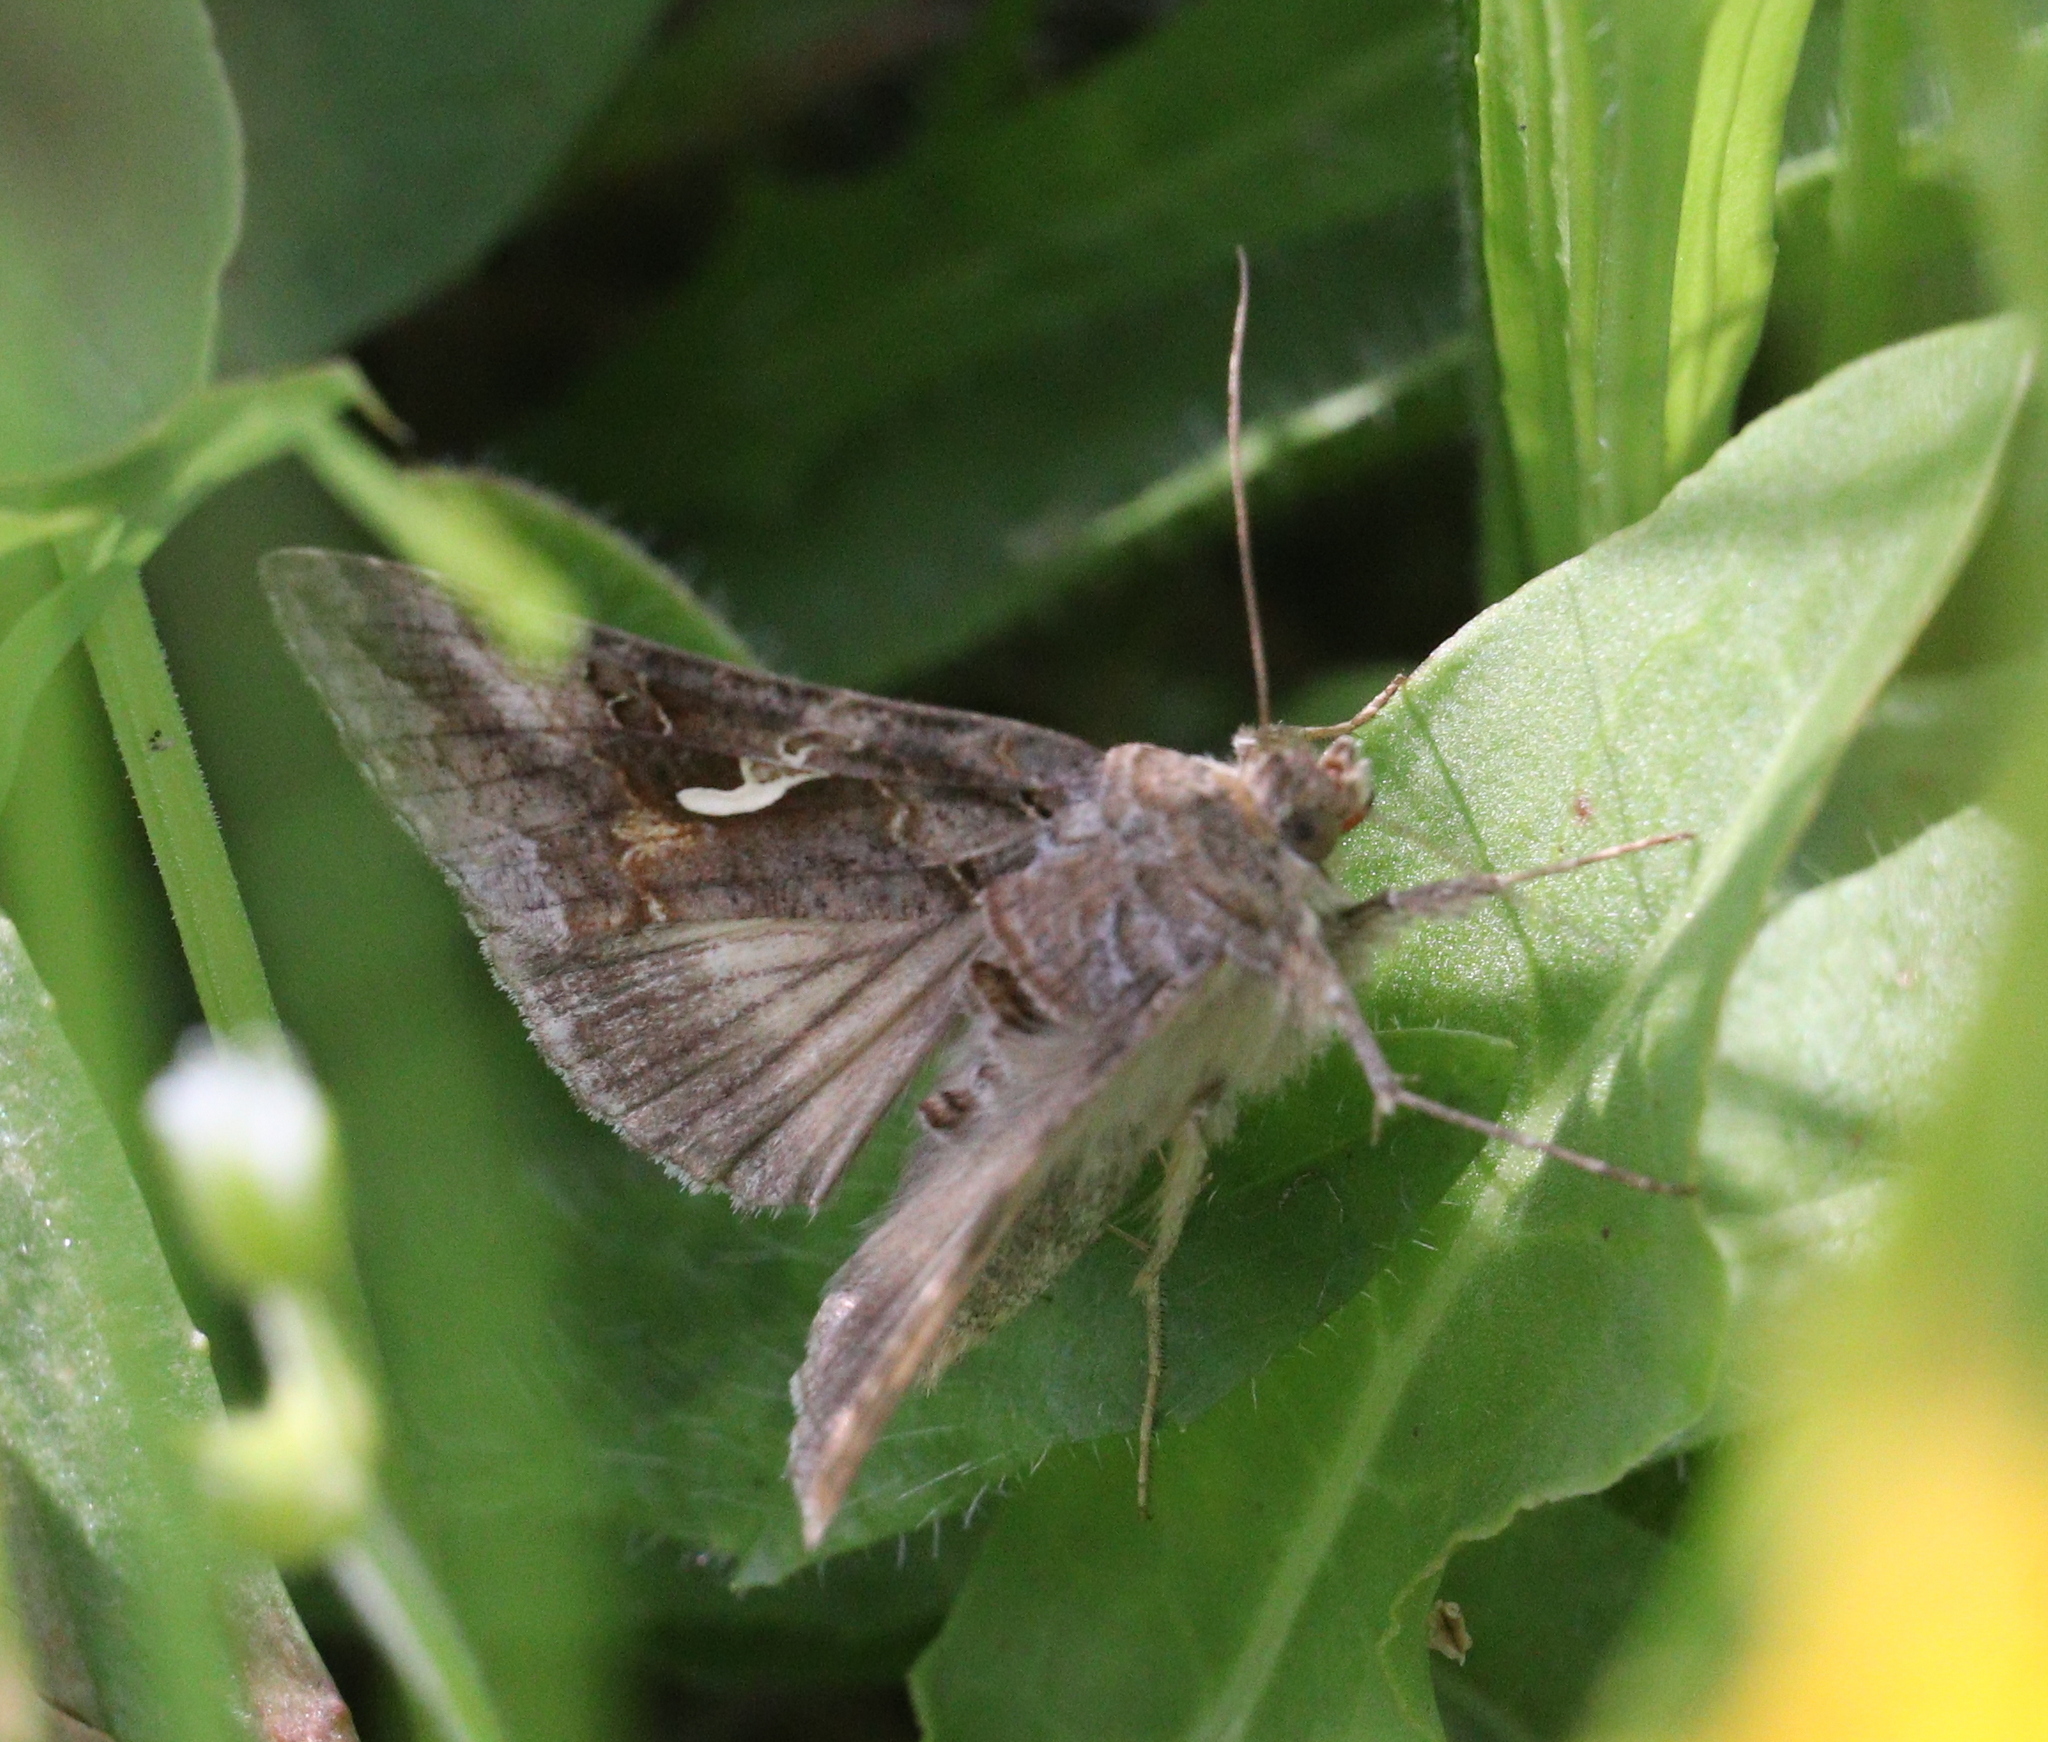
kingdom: Animalia
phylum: Arthropoda
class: Insecta
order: Lepidoptera
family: Noctuidae
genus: Autographa
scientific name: Autographa gamma
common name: Silver y
